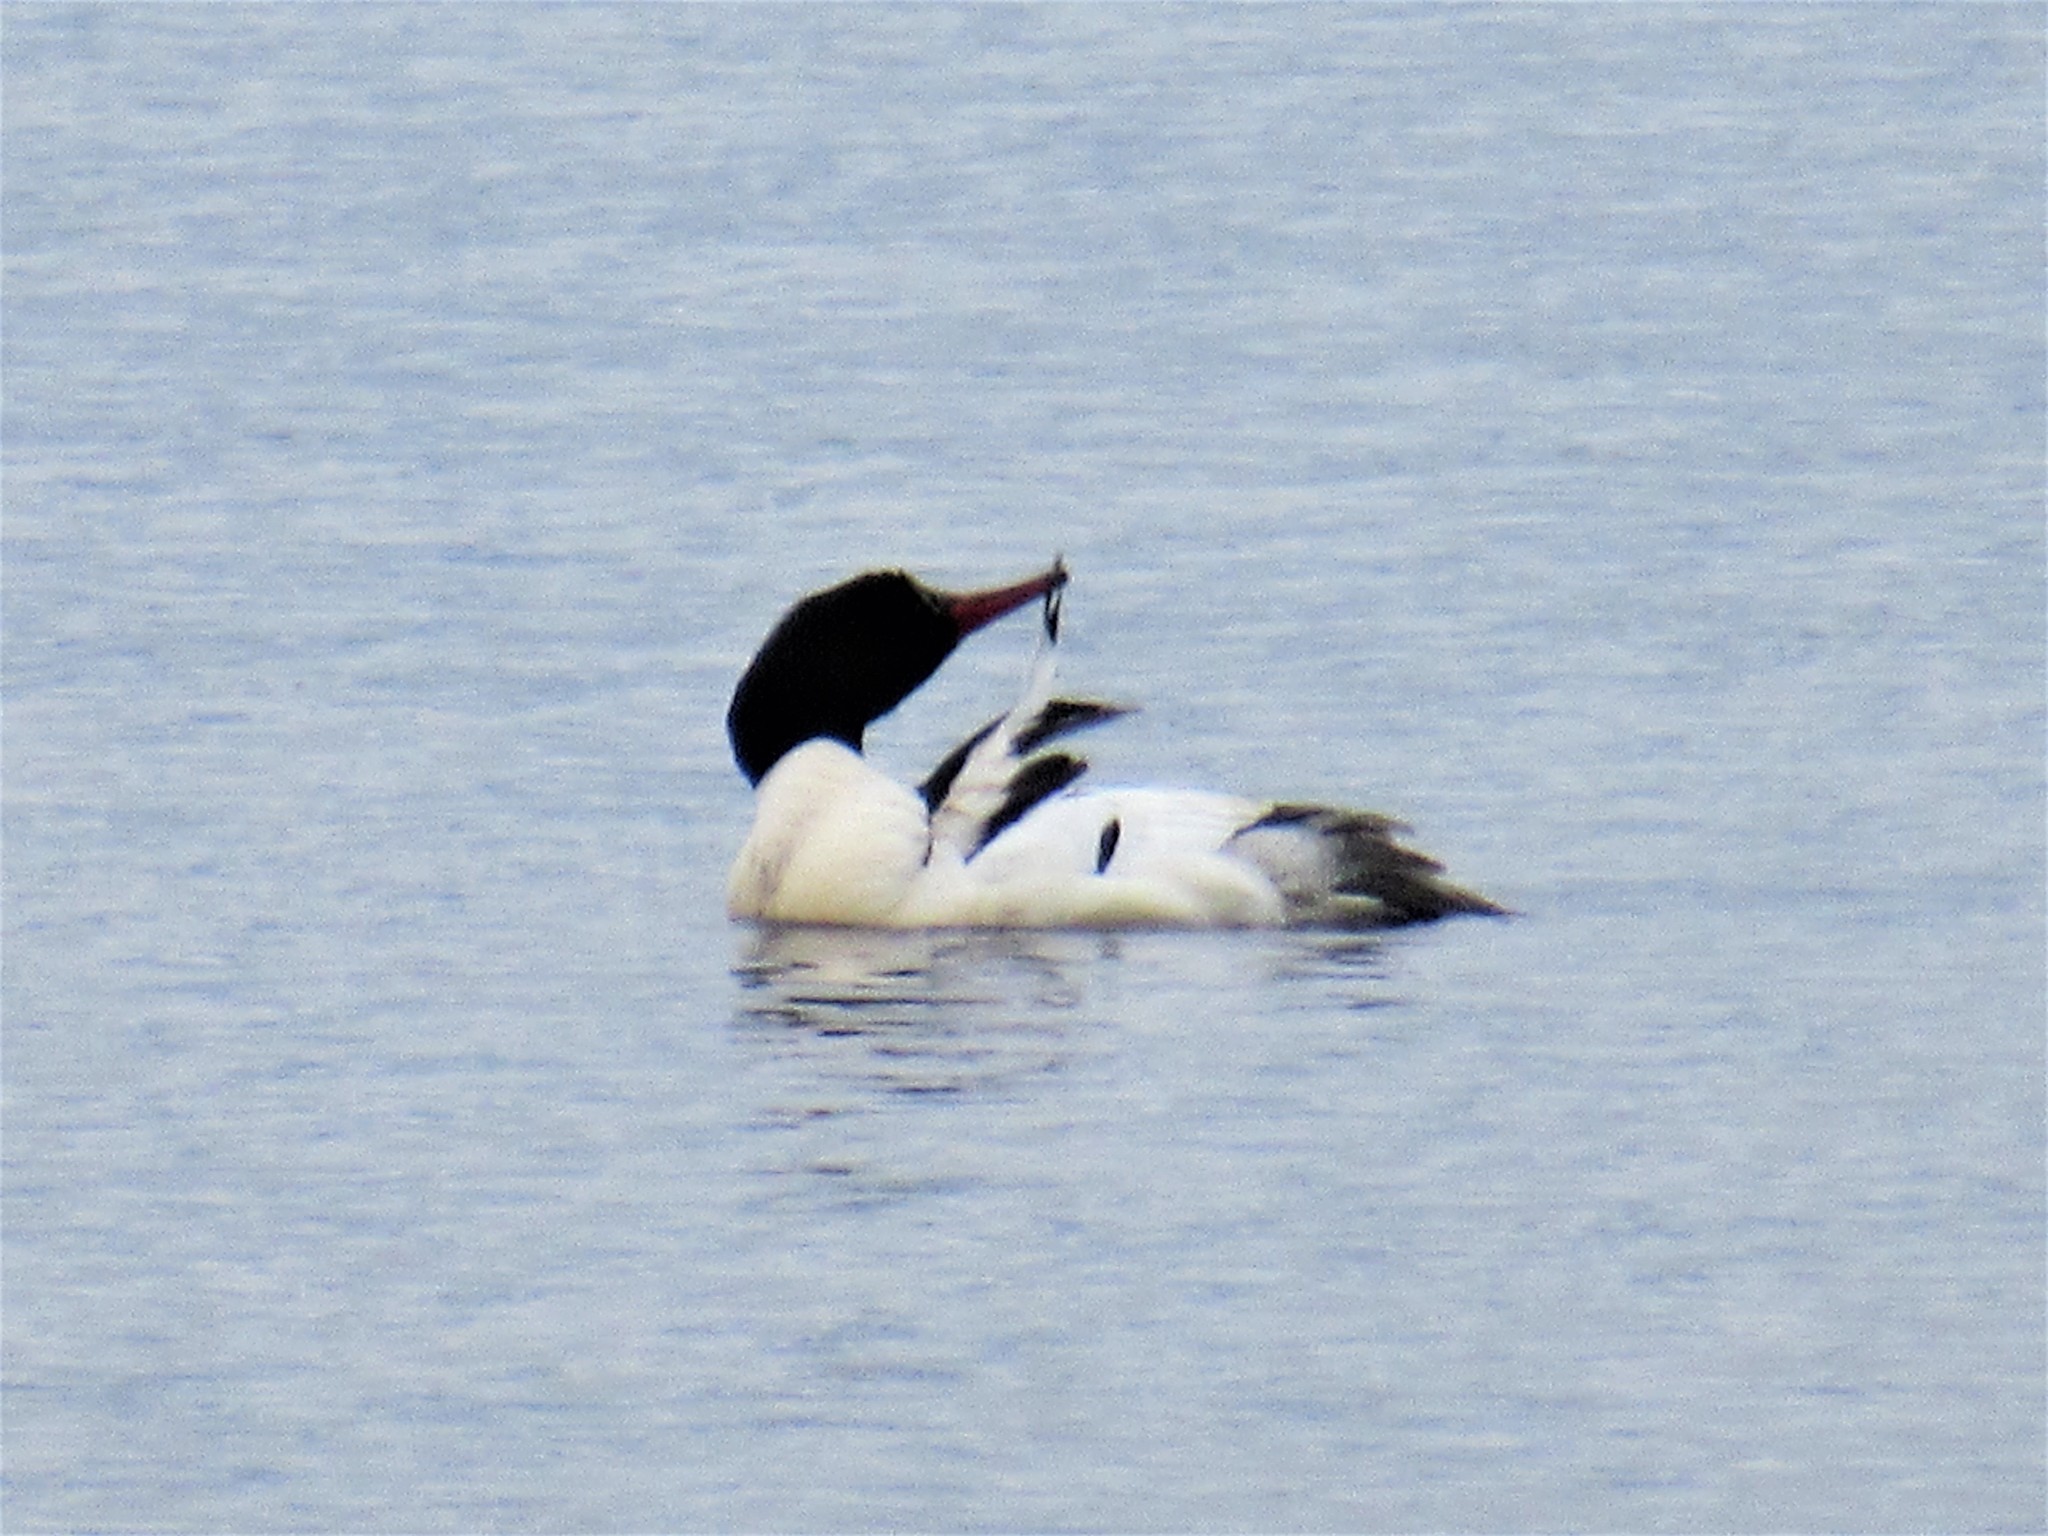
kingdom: Animalia
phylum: Chordata
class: Aves
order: Anseriformes
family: Anatidae
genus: Mergus
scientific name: Mergus merganser
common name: Common merganser
